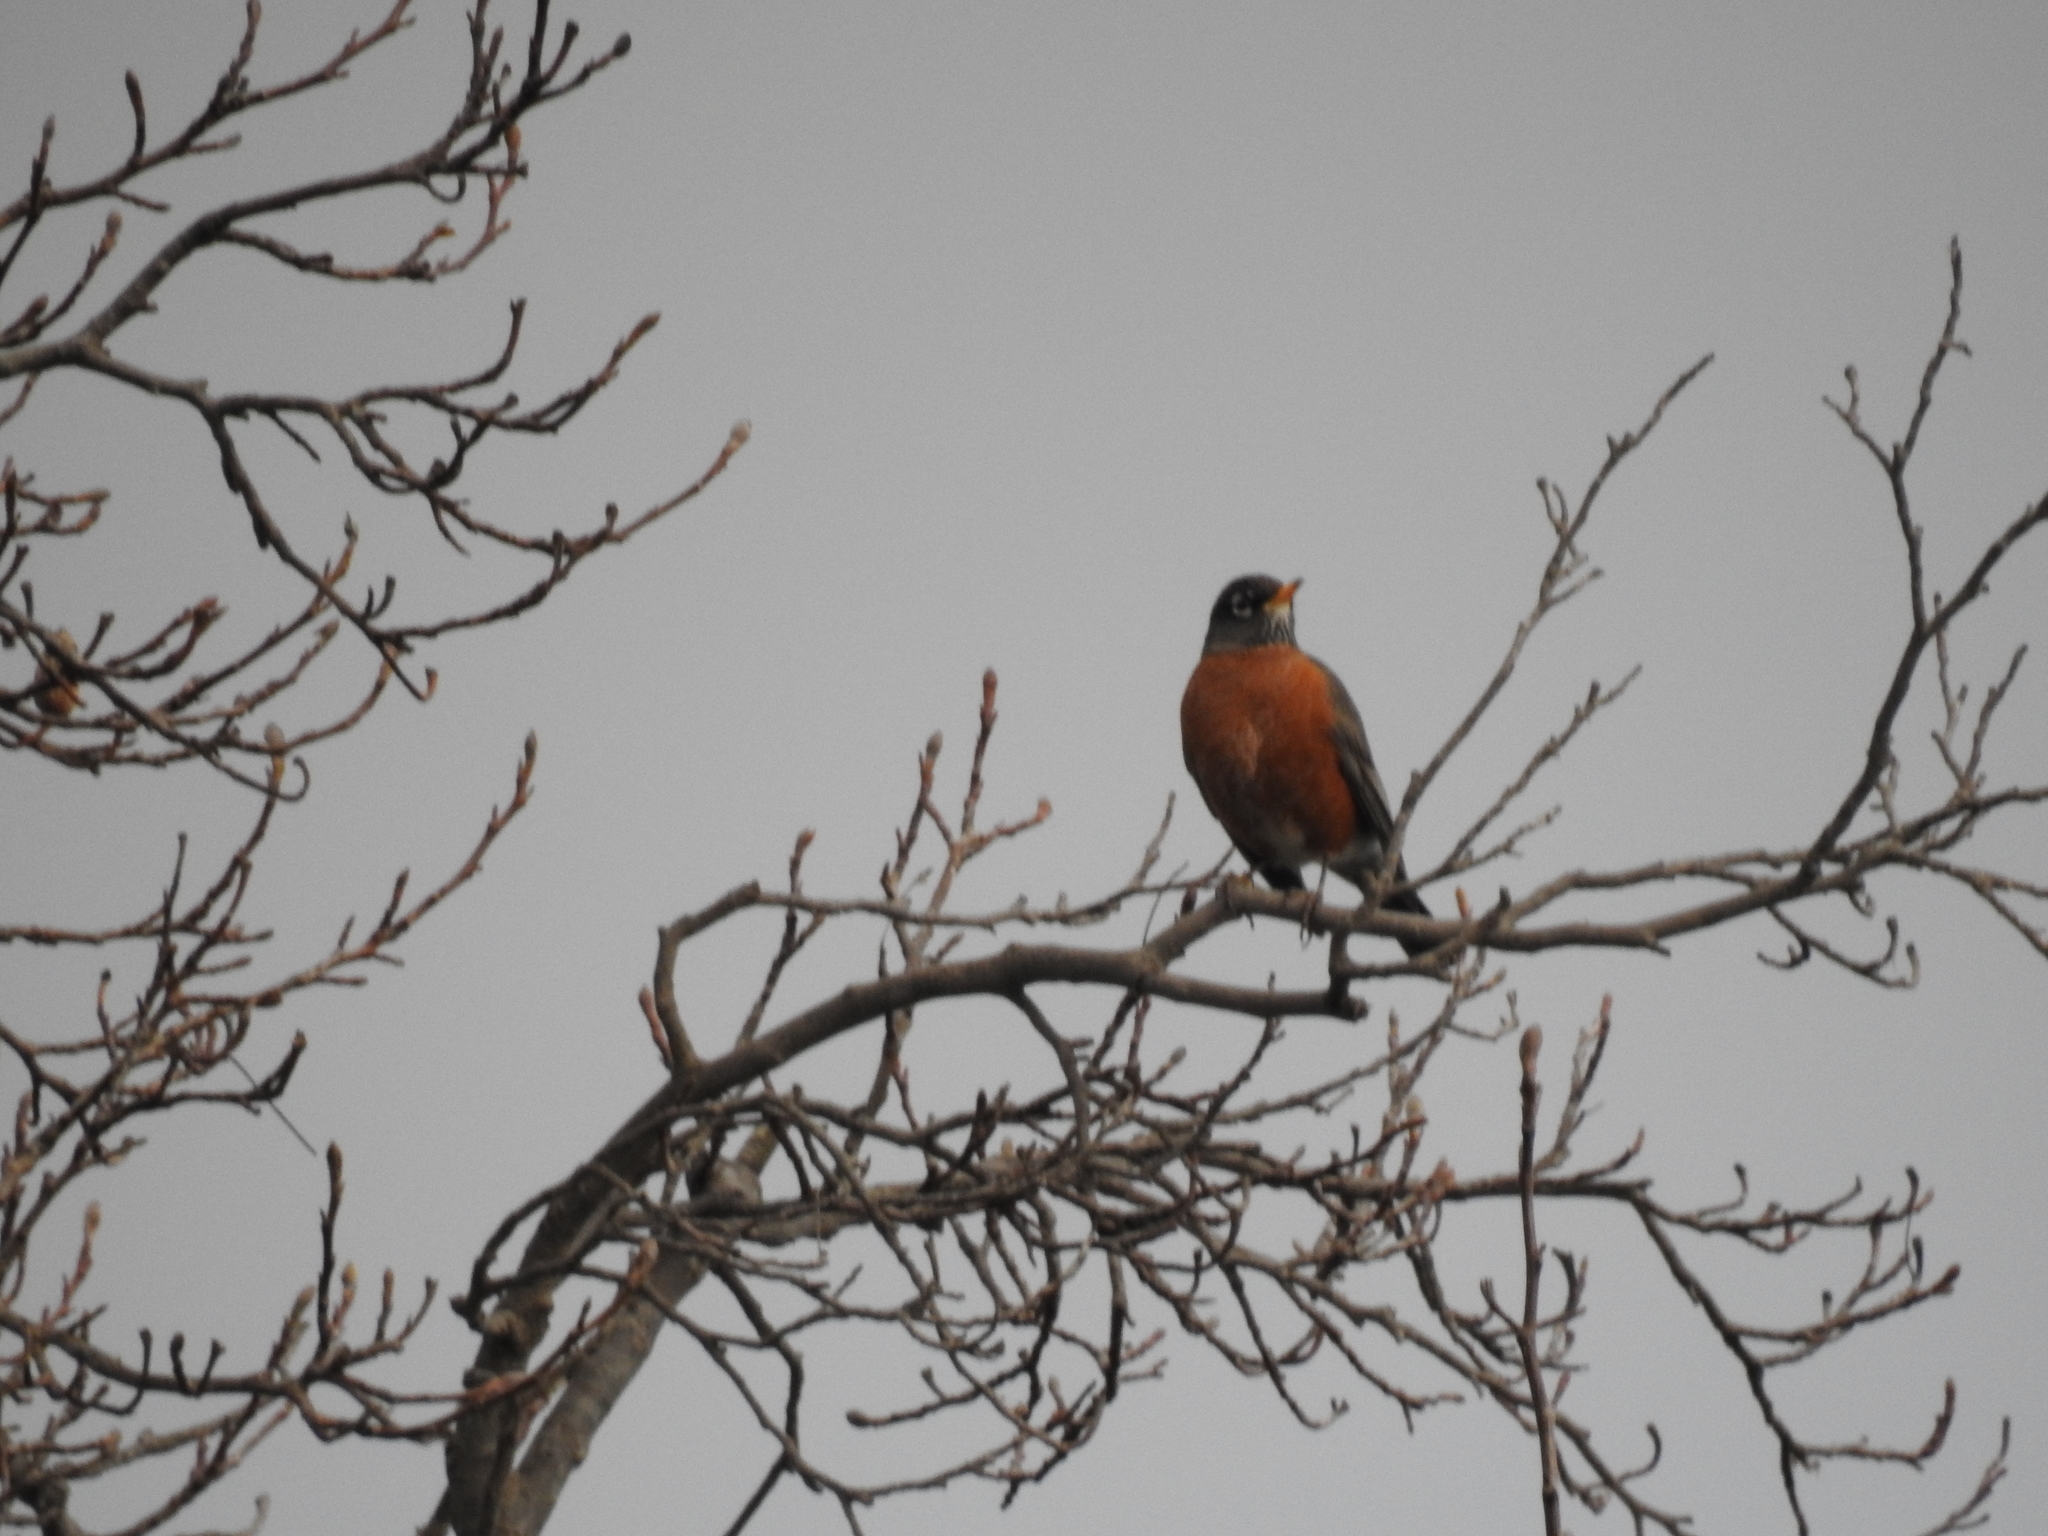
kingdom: Animalia
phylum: Chordata
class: Aves
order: Passeriformes
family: Turdidae
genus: Turdus
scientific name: Turdus migratorius
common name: American robin
